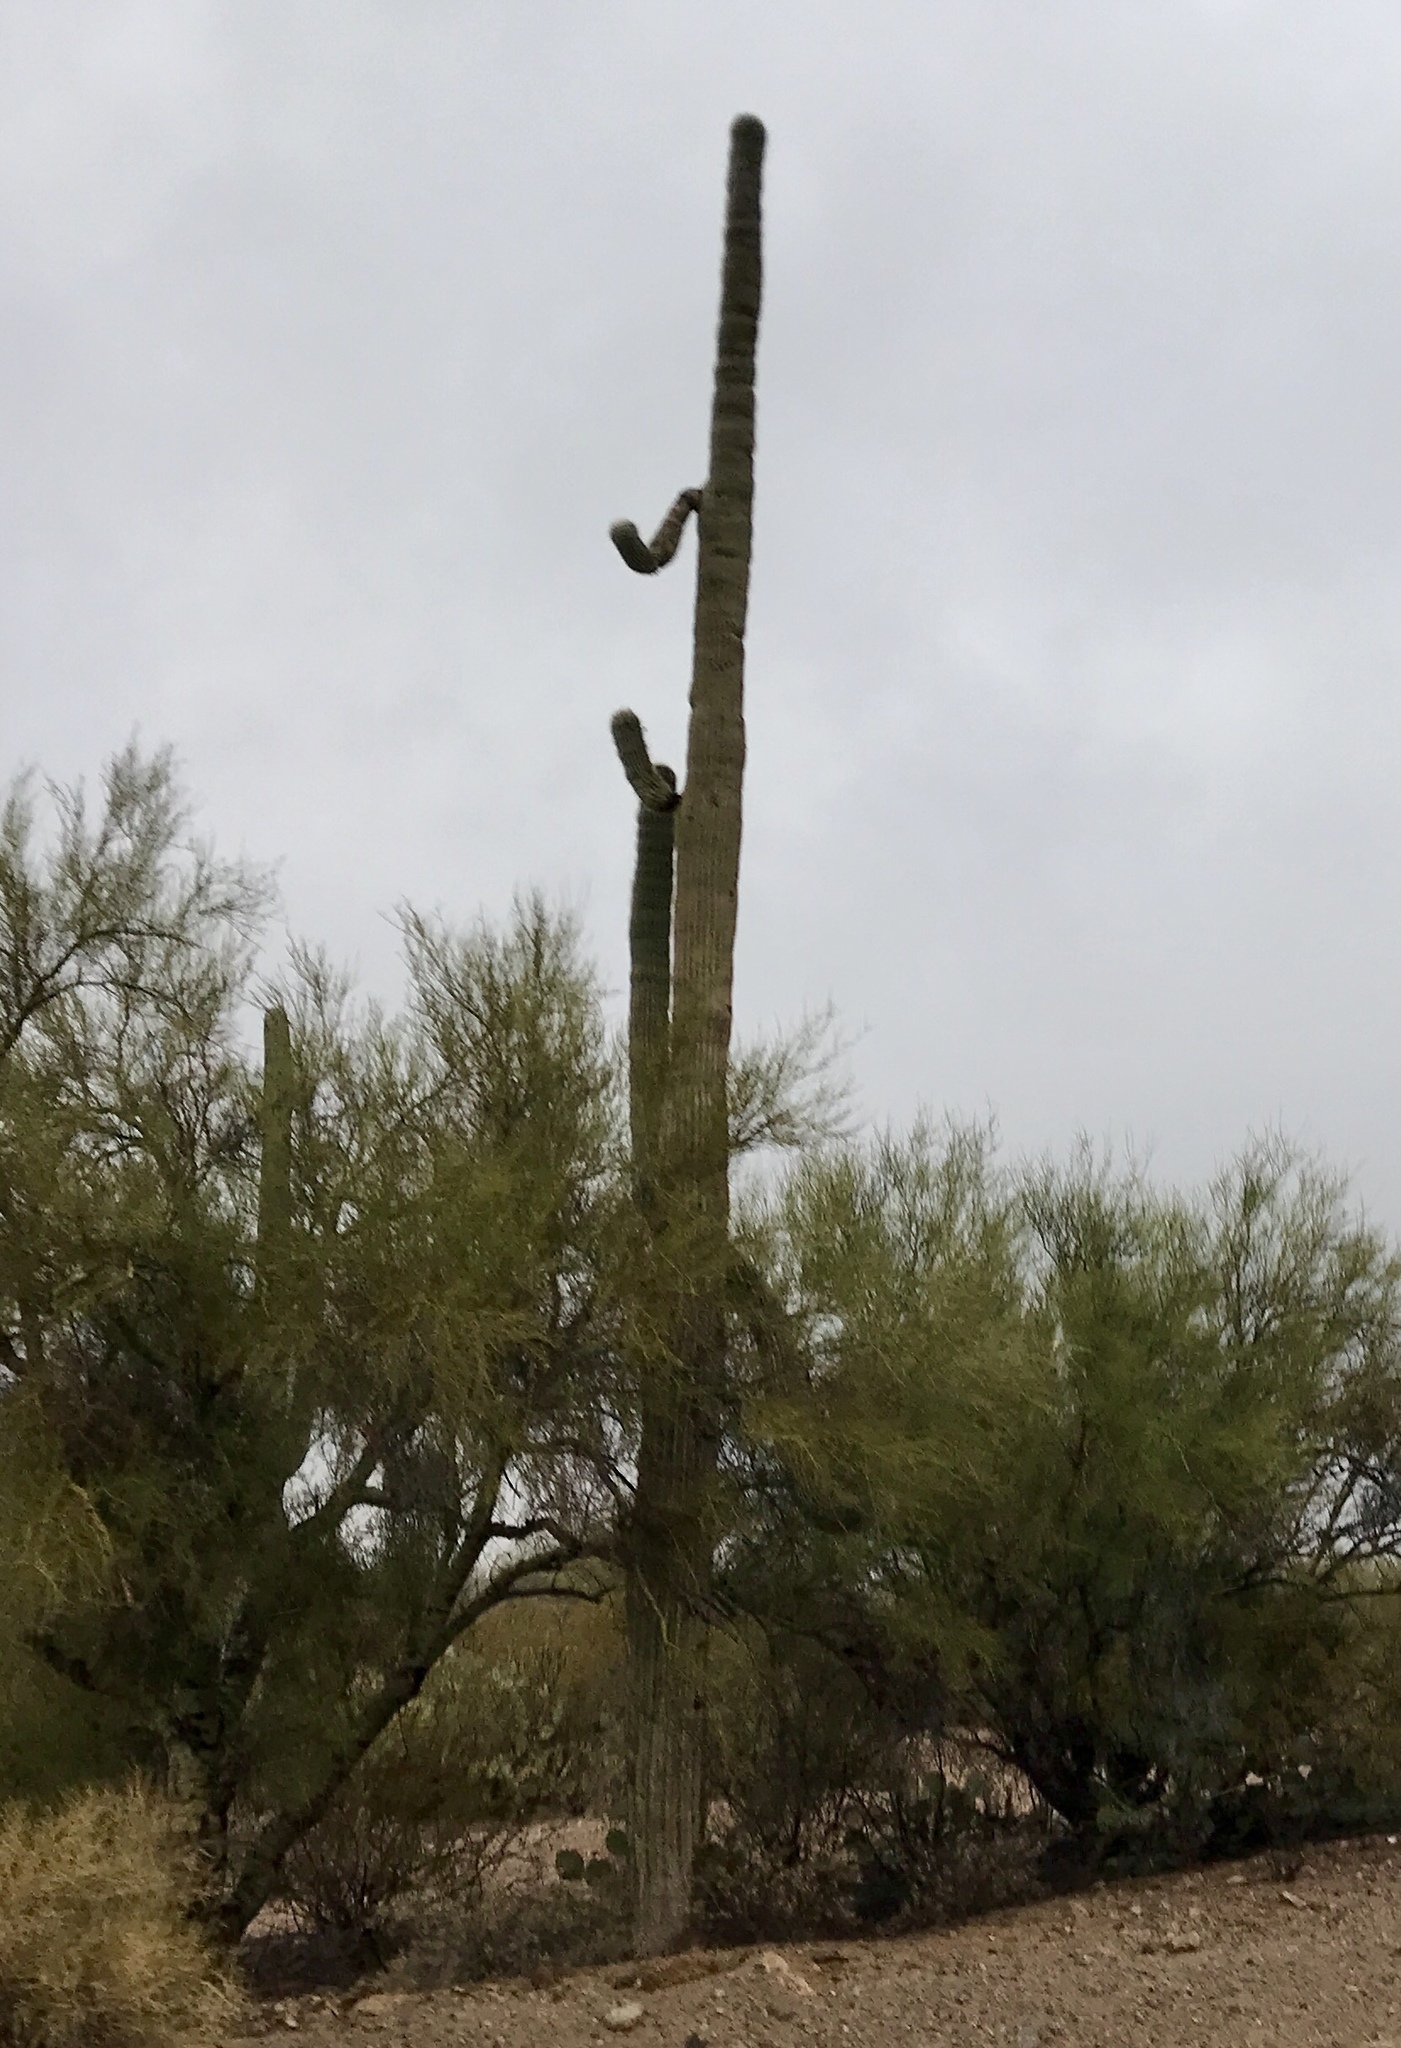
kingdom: Plantae
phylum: Tracheophyta
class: Magnoliopsida
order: Caryophyllales
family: Cactaceae
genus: Carnegiea
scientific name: Carnegiea gigantea
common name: Saguaro
